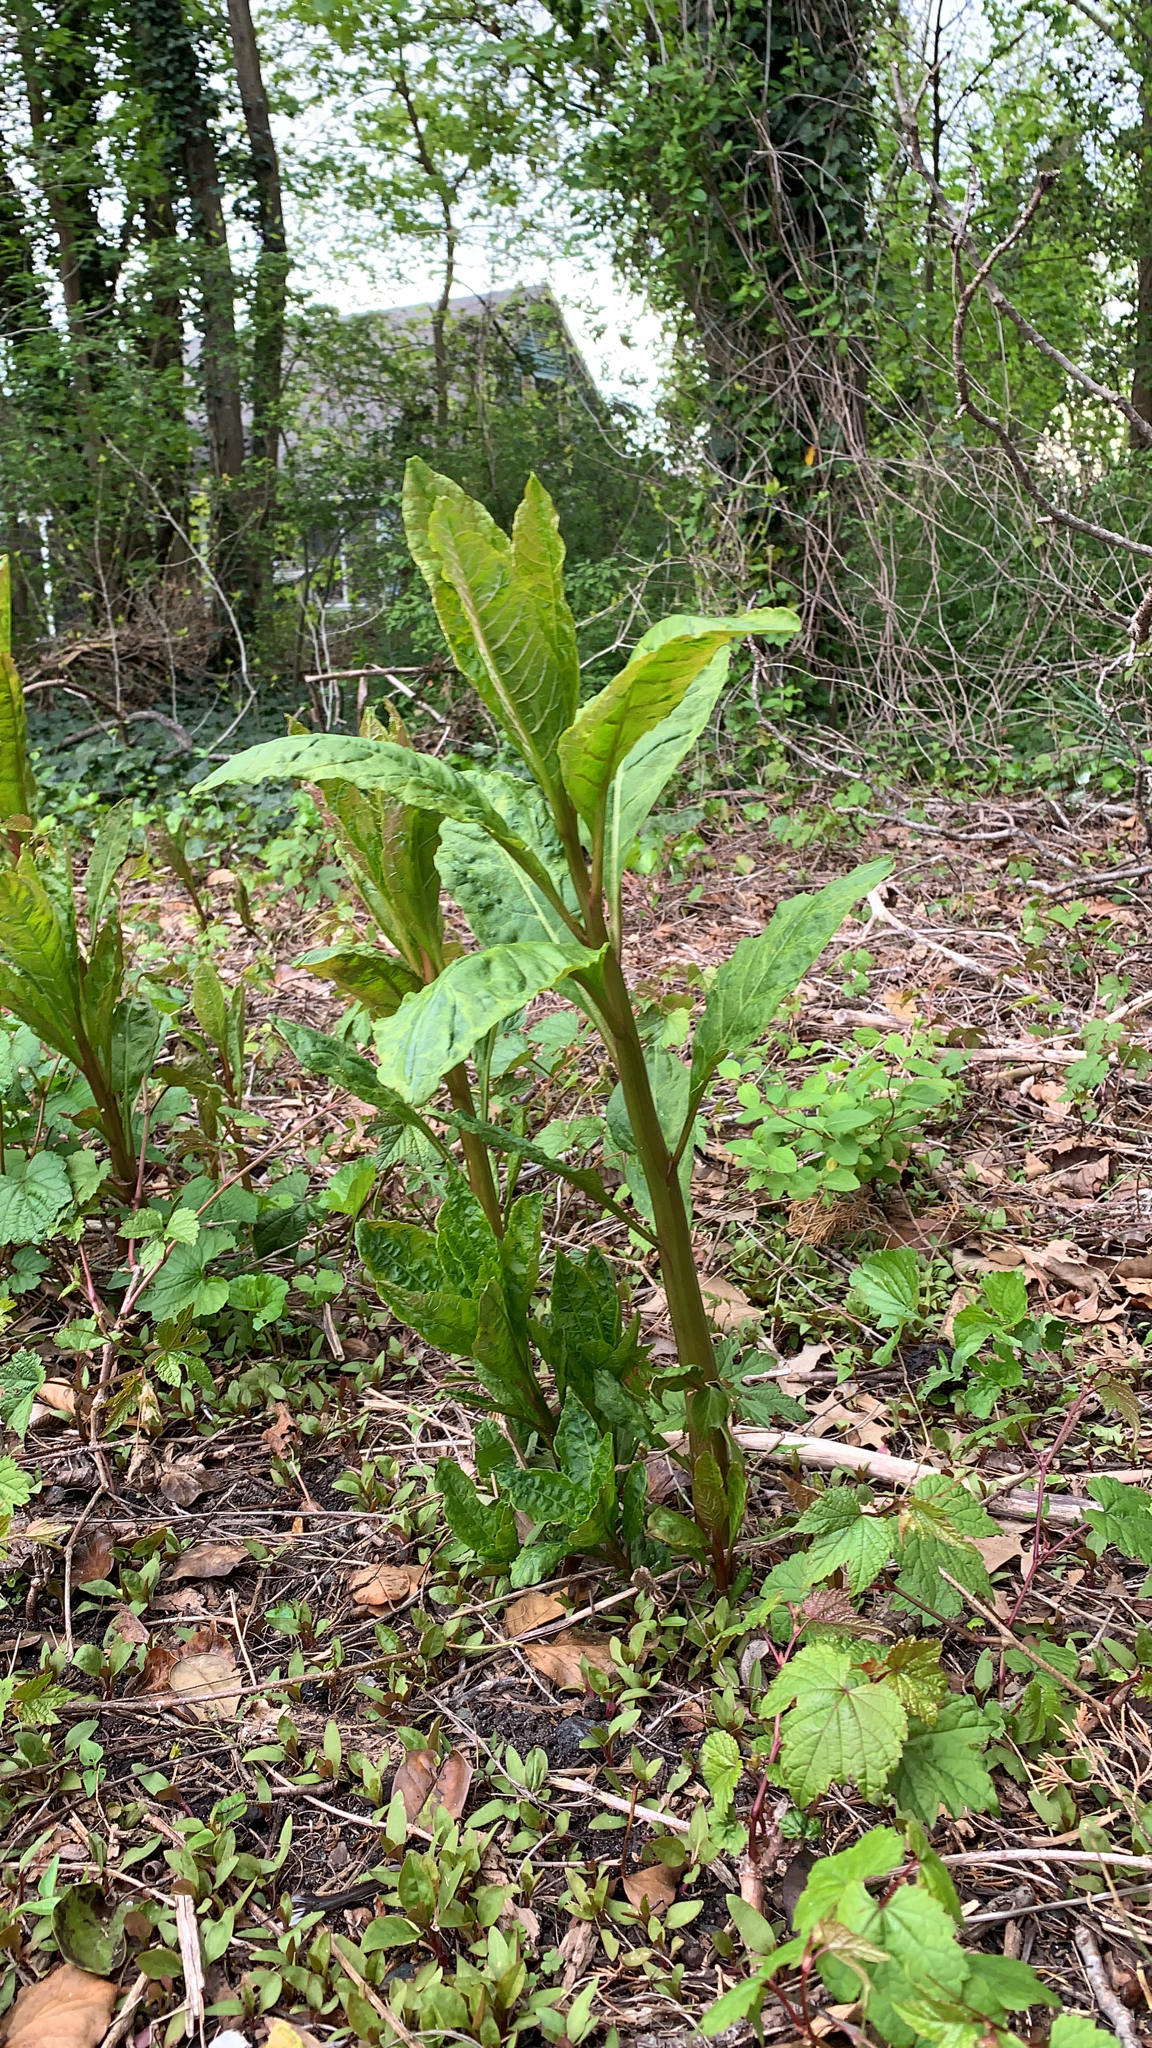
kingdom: Plantae
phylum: Tracheophyta
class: Magnoliopsida
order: Caryophyllales
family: Phytolaccaceae
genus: Phytolacca
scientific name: Phytolacca americana
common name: American pokeweed
